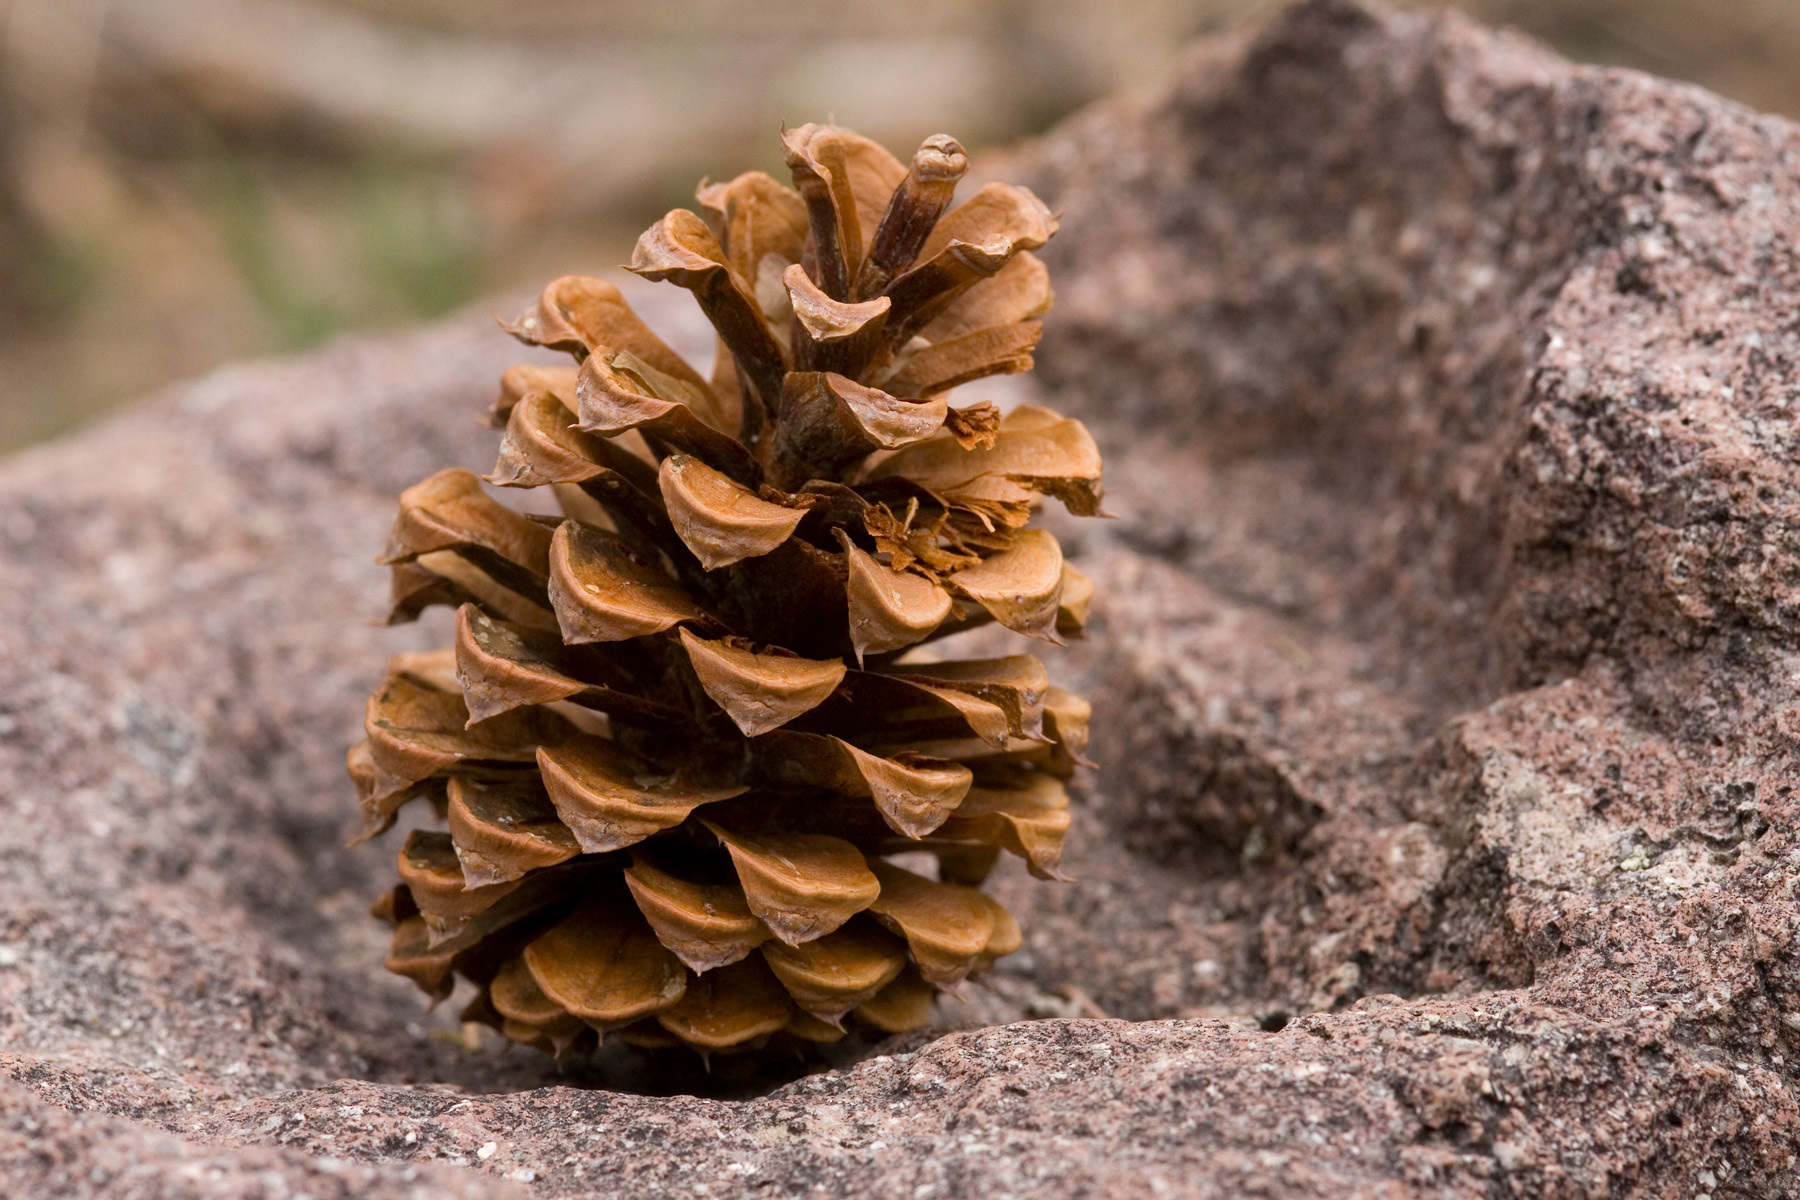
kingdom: Plantae
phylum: Tracheophyta
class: Pinopsida
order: Pinales
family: Pinaceae
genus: Pinus
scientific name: Pinus ponderosa
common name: Western yellow-pine
